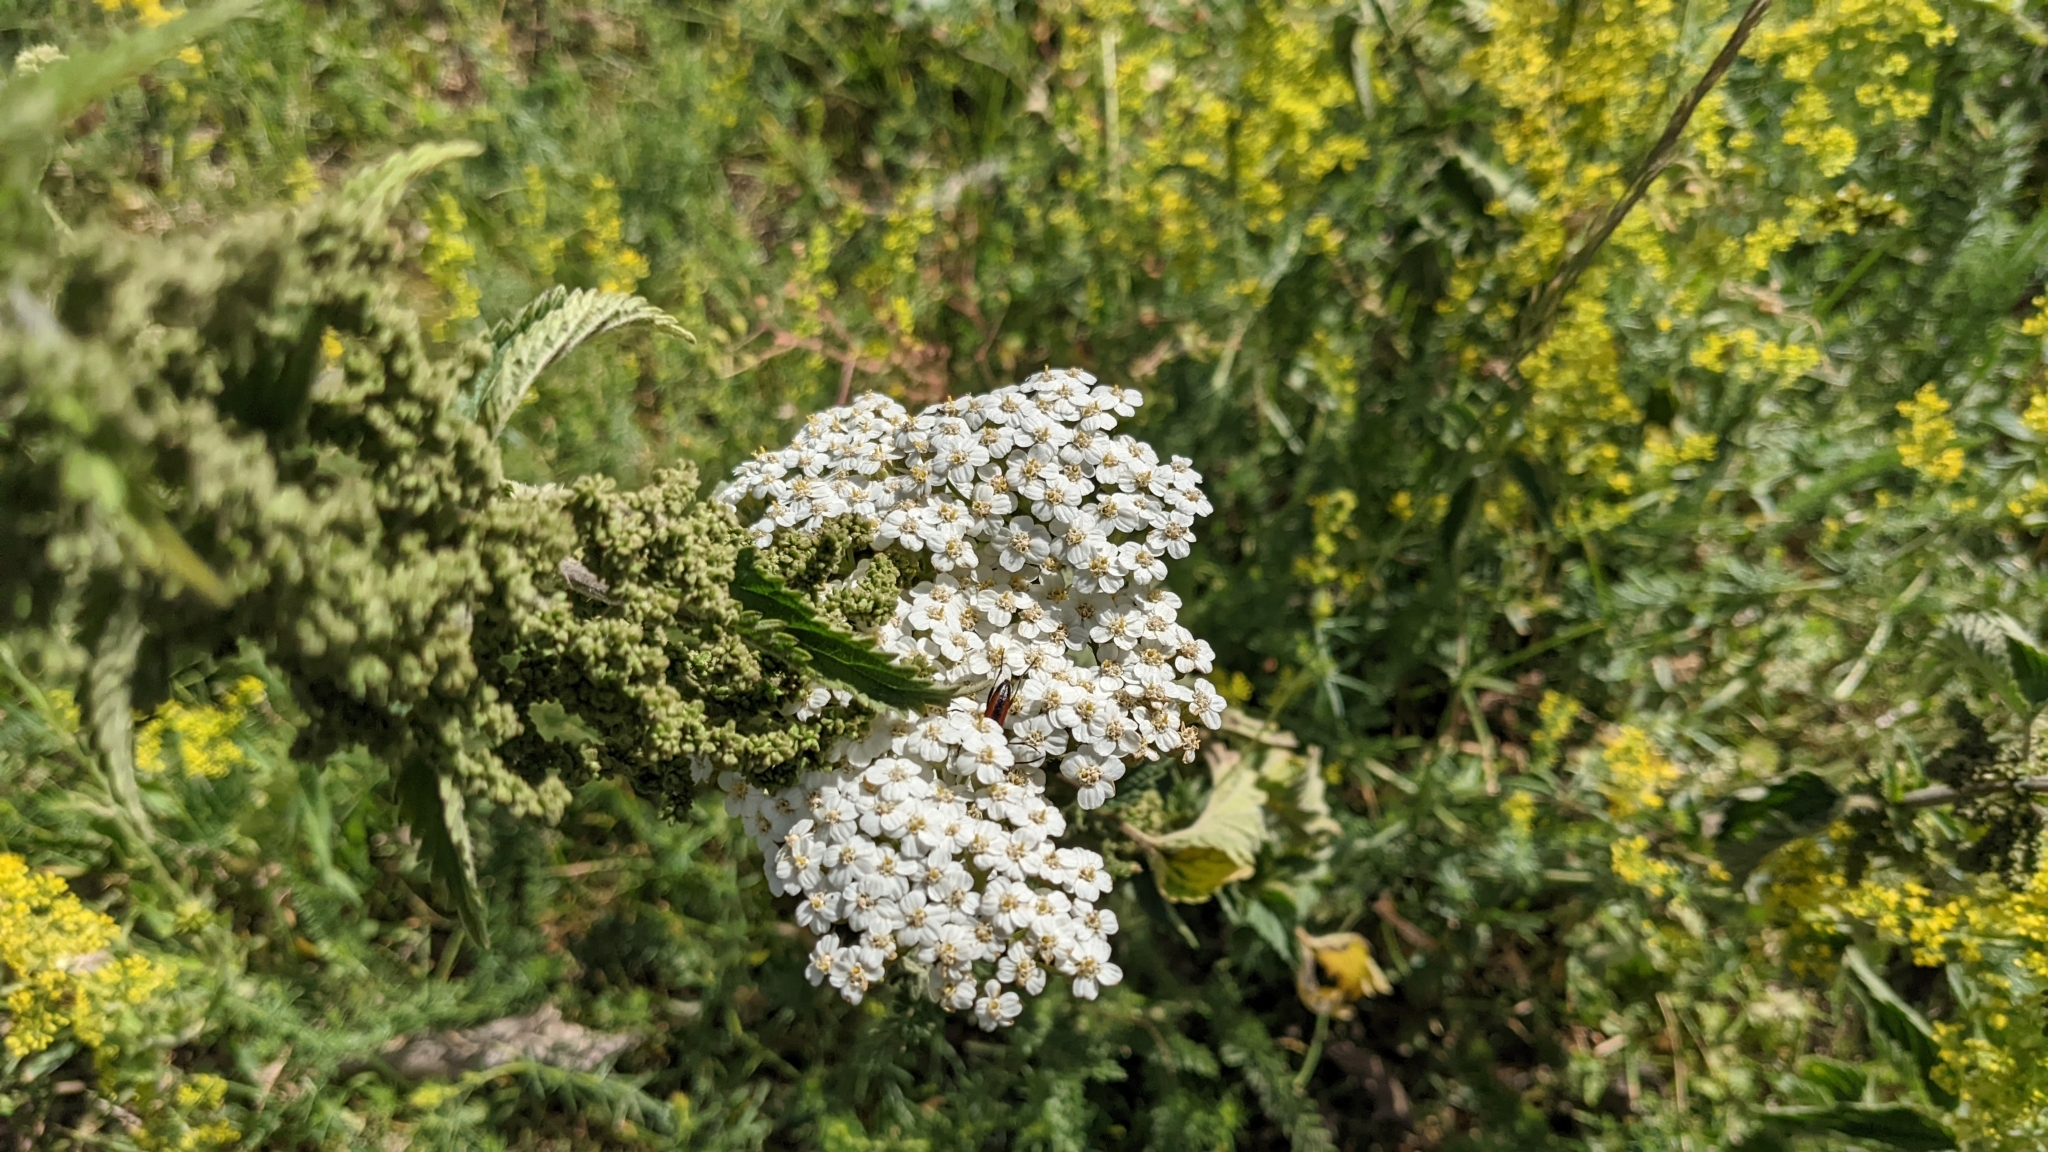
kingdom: Plantae
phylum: Tracheophyta
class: Magnoliopsida
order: Asterales
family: Asteraceae
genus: Achillea
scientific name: Achillea millefolium
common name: Yarrow
